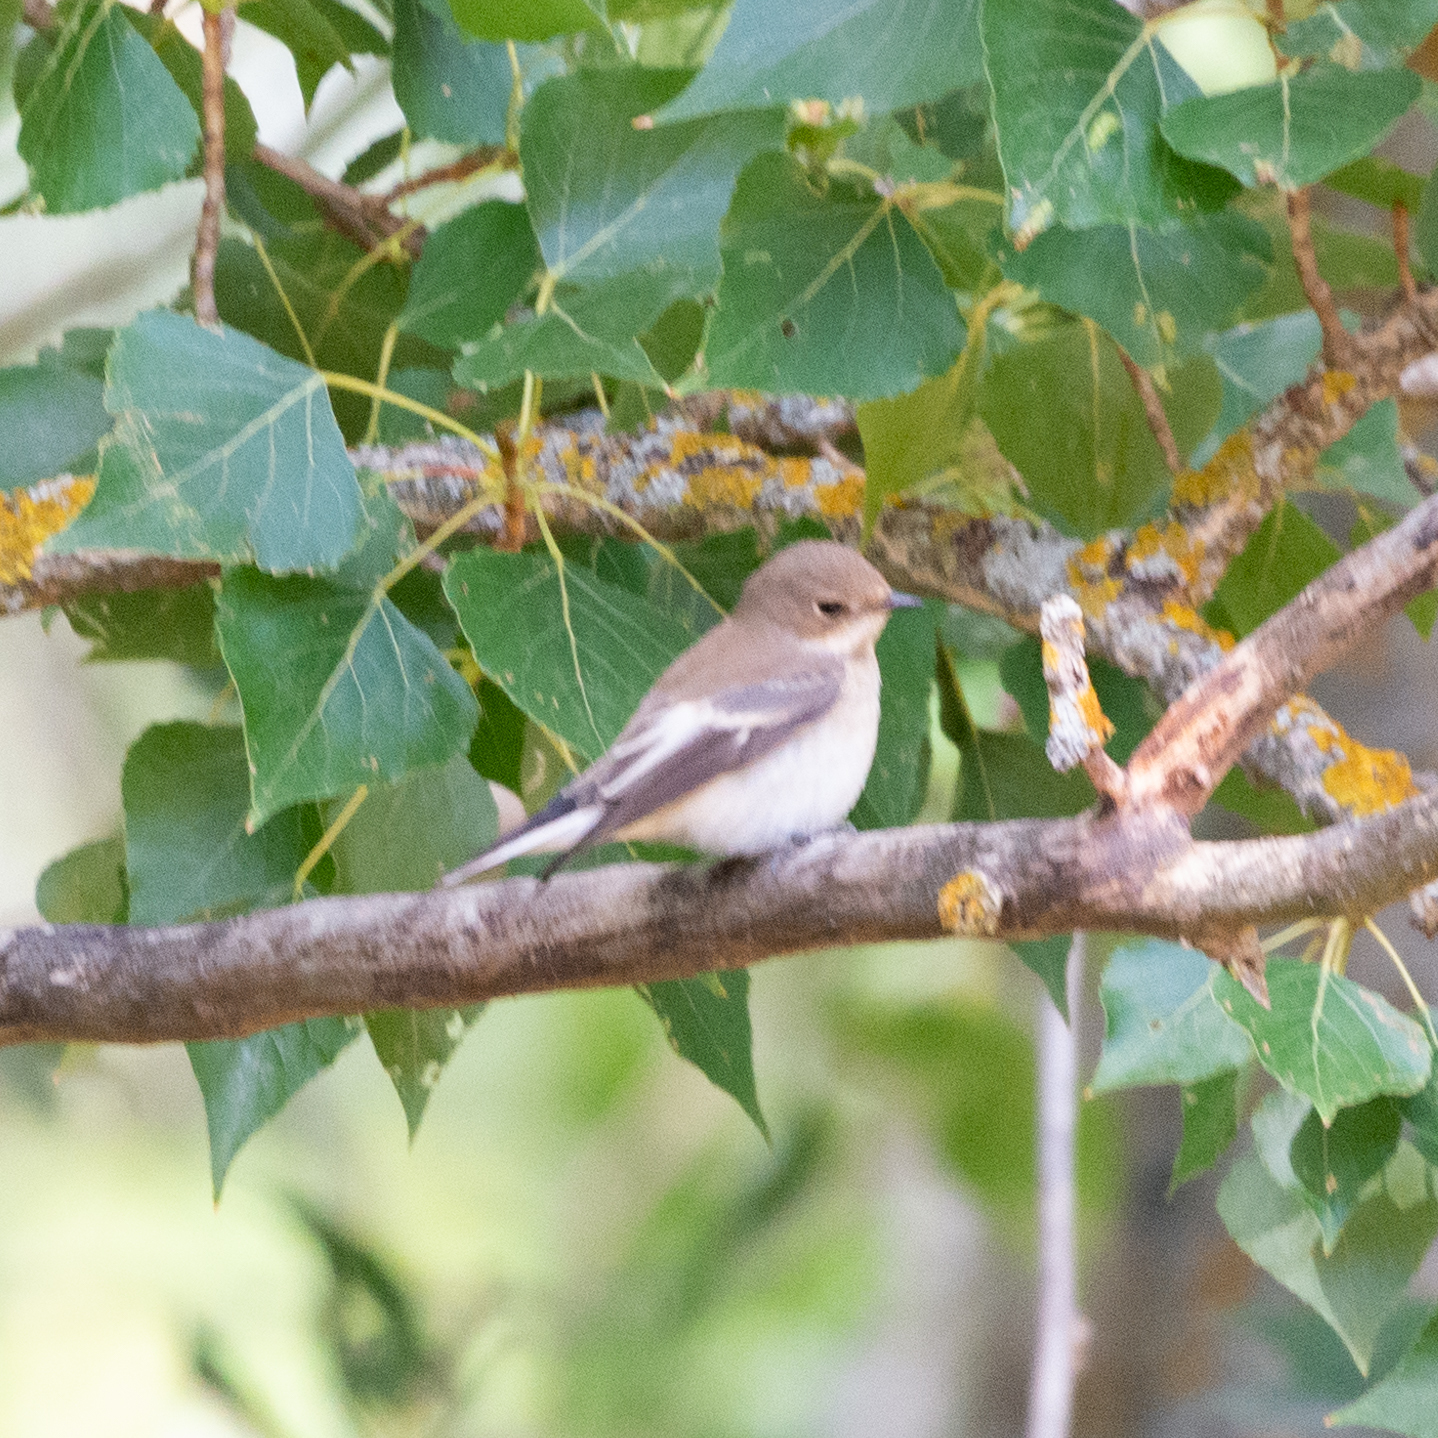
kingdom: Animalia
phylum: Chordata
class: Aves
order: Passeriformes
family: Muscicapidae
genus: Ficedula
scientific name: Ficedula hypoleuca
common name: European pied flycatcher
